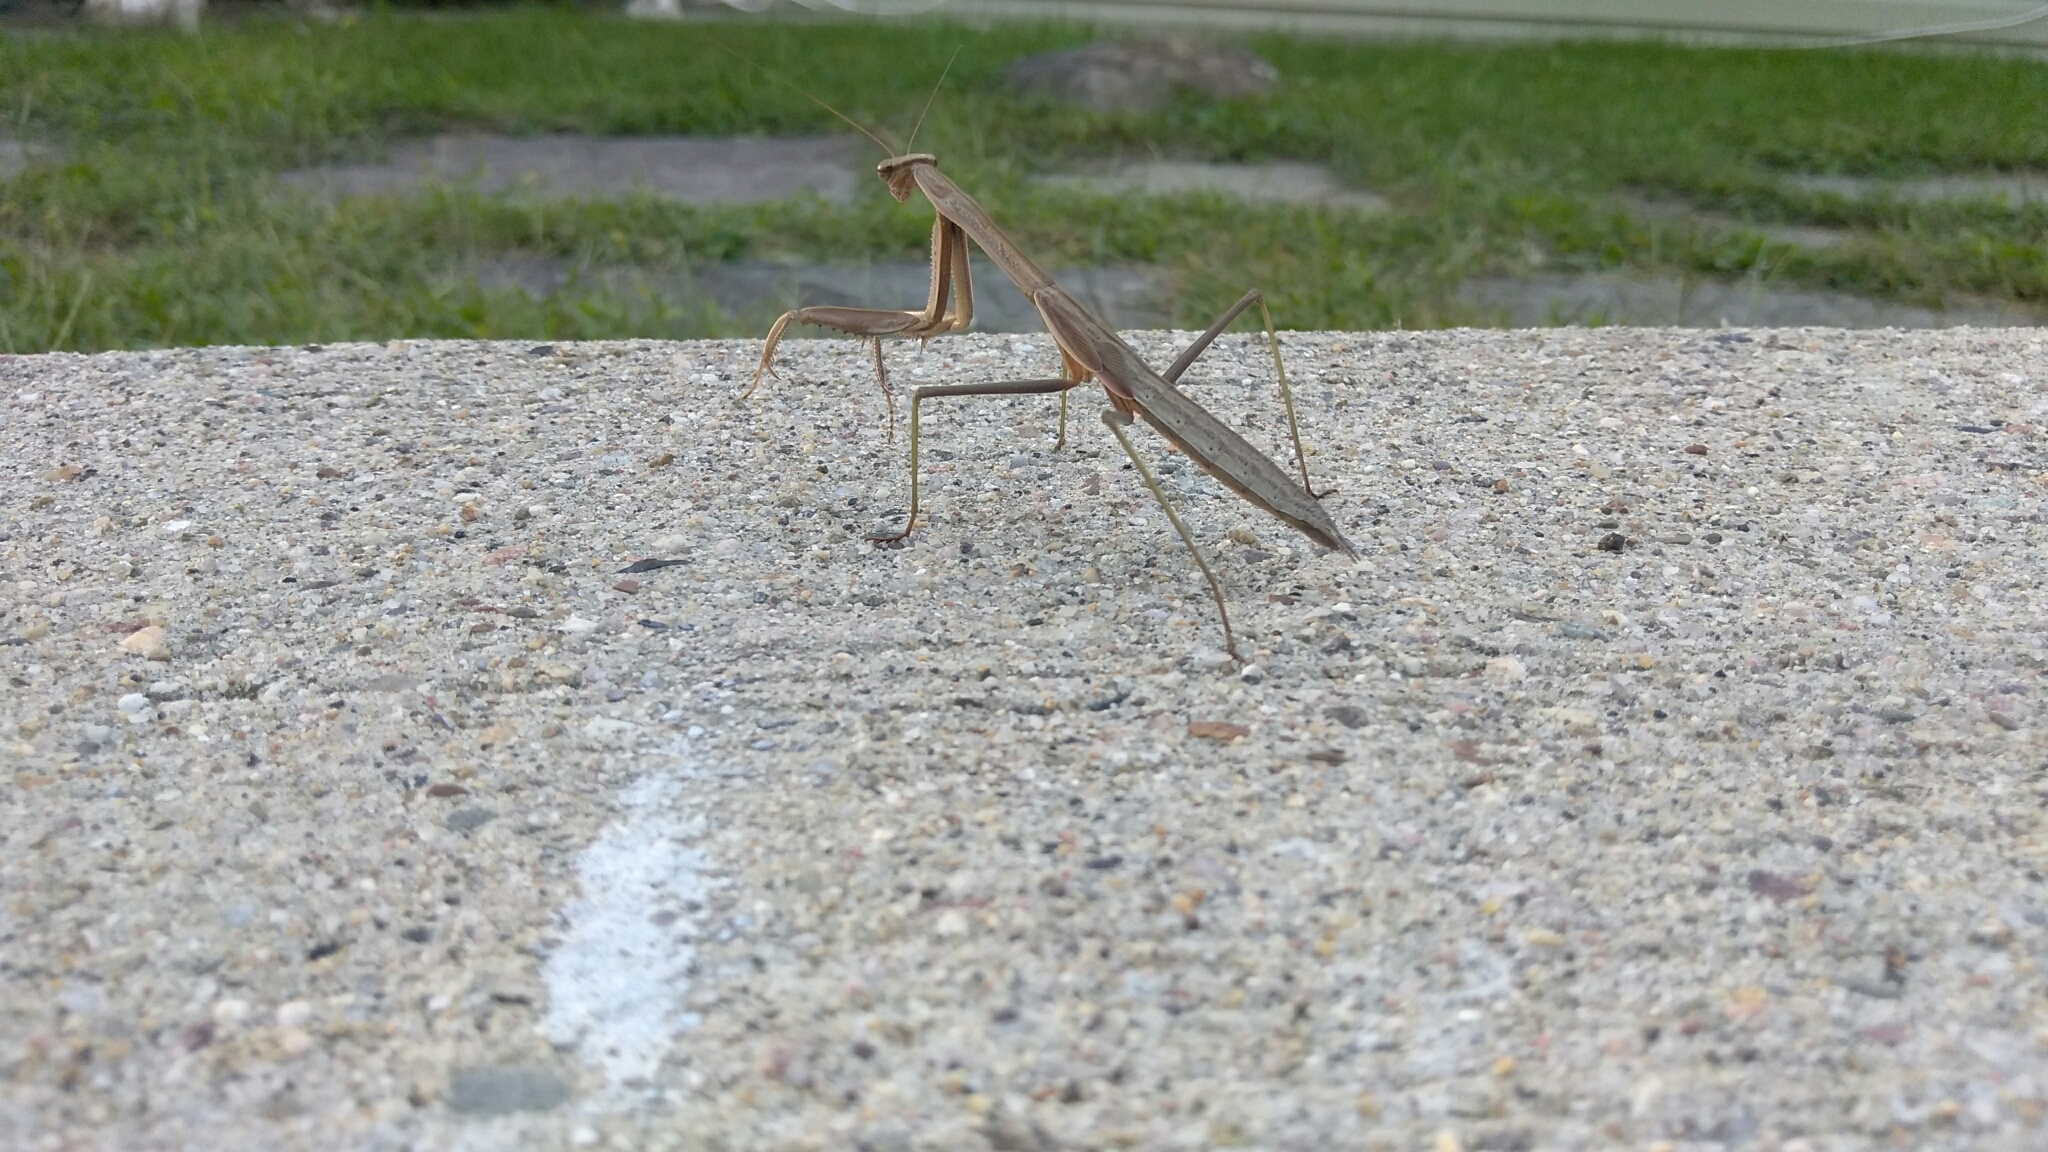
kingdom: Animalia
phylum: Arthropoda
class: Insecta
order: Mantodea
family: Mantidae
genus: Tenodera
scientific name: Tenodera sinensis
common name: Chinese mantis
